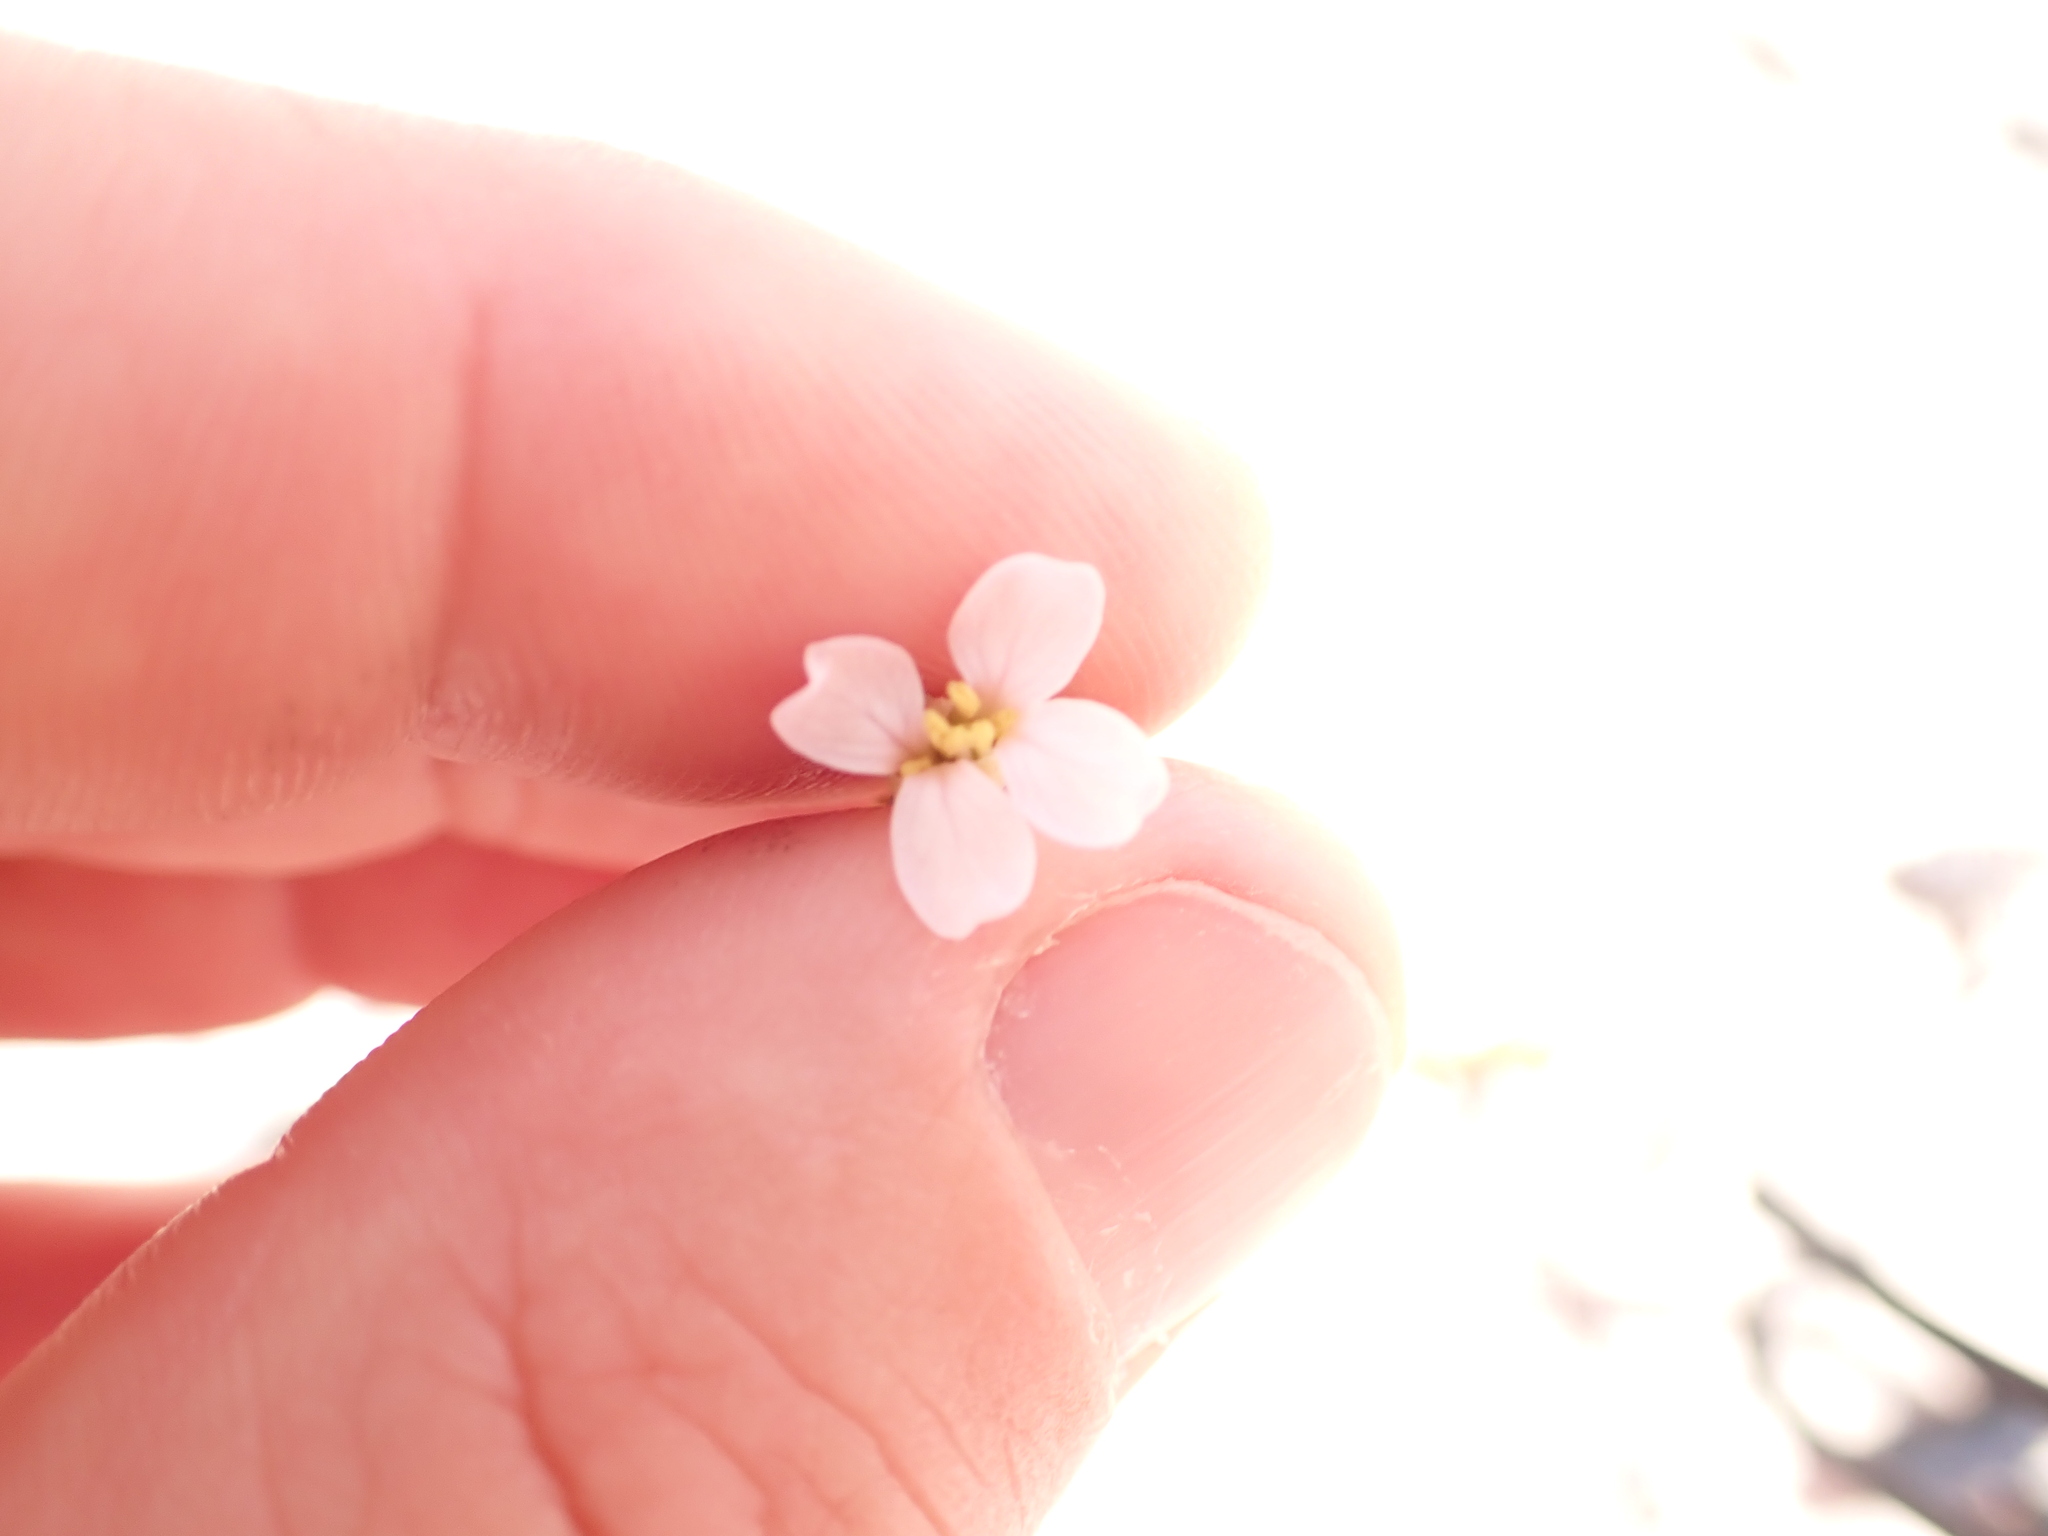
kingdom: Plantae
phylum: Tracheophyta
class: Magnoliopsida
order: Brassicales
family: Brassicaceae
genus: Cakile
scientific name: Cakile maritima
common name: Sea rocket
